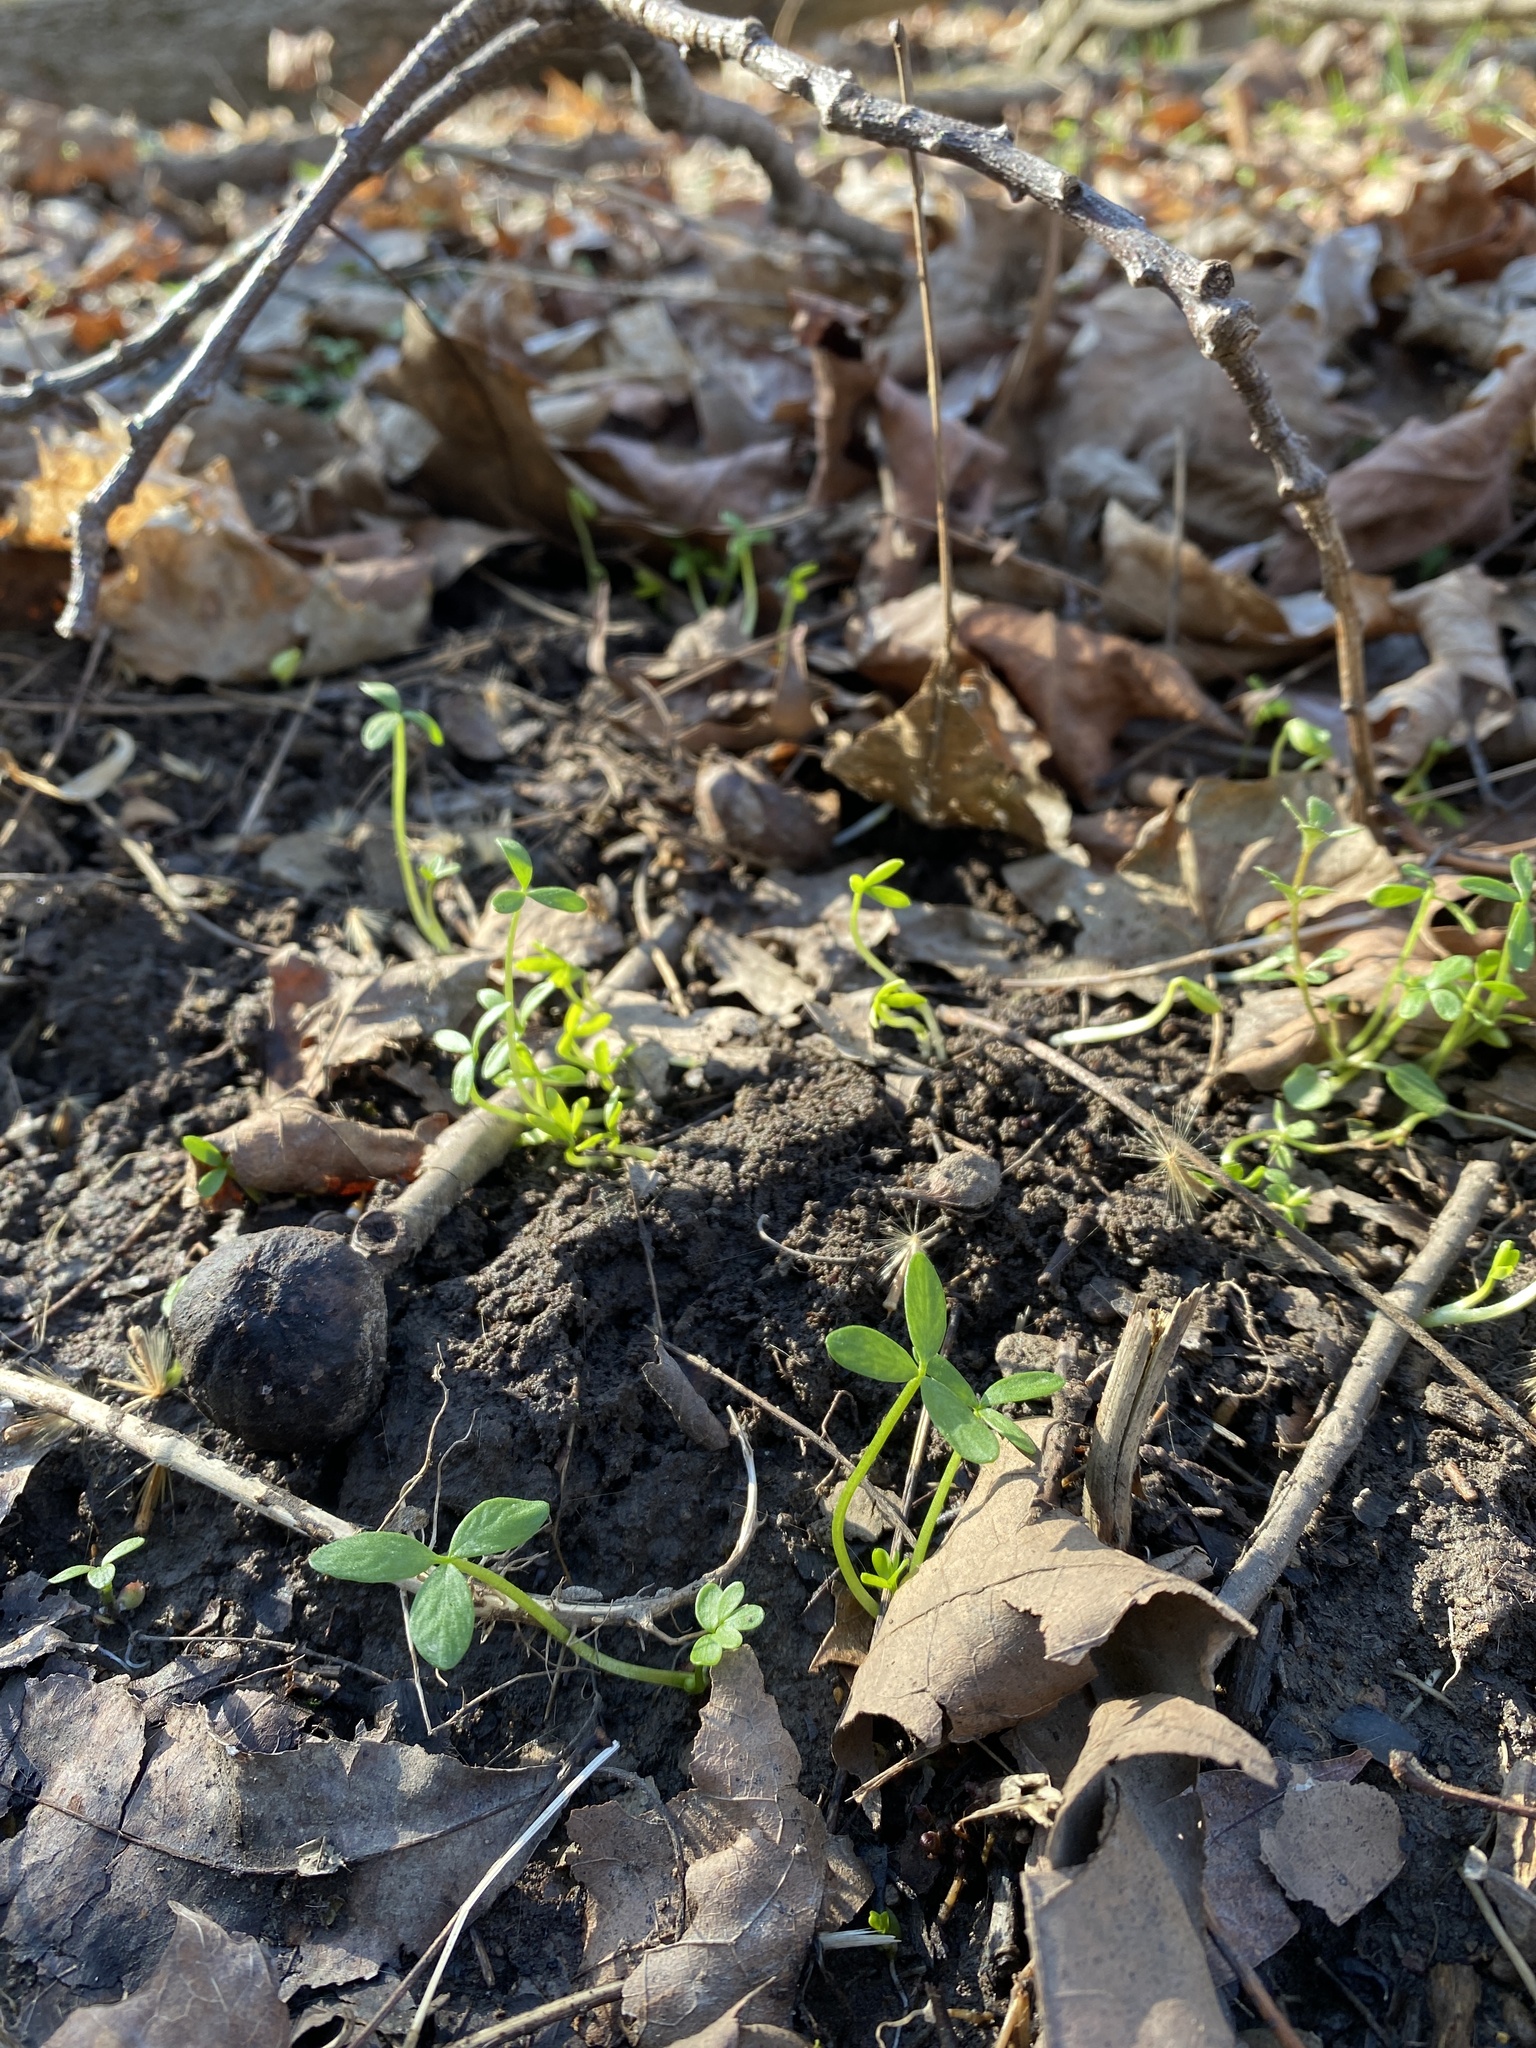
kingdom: Plantae
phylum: Tracheophyta
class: Magnoliopsida
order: Brassicales
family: Limnanthaceae
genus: Floerkea
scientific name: Floerkea proserpinacoides
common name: False mermaid
